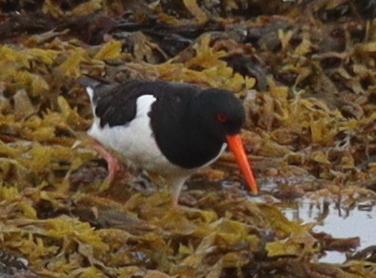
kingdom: Animalia
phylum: Chordata
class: Aves
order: Charadriiformes
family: Haematopodidae
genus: Haematopus
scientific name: Haematopus ostralegus
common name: Eurasian oystercatcher
